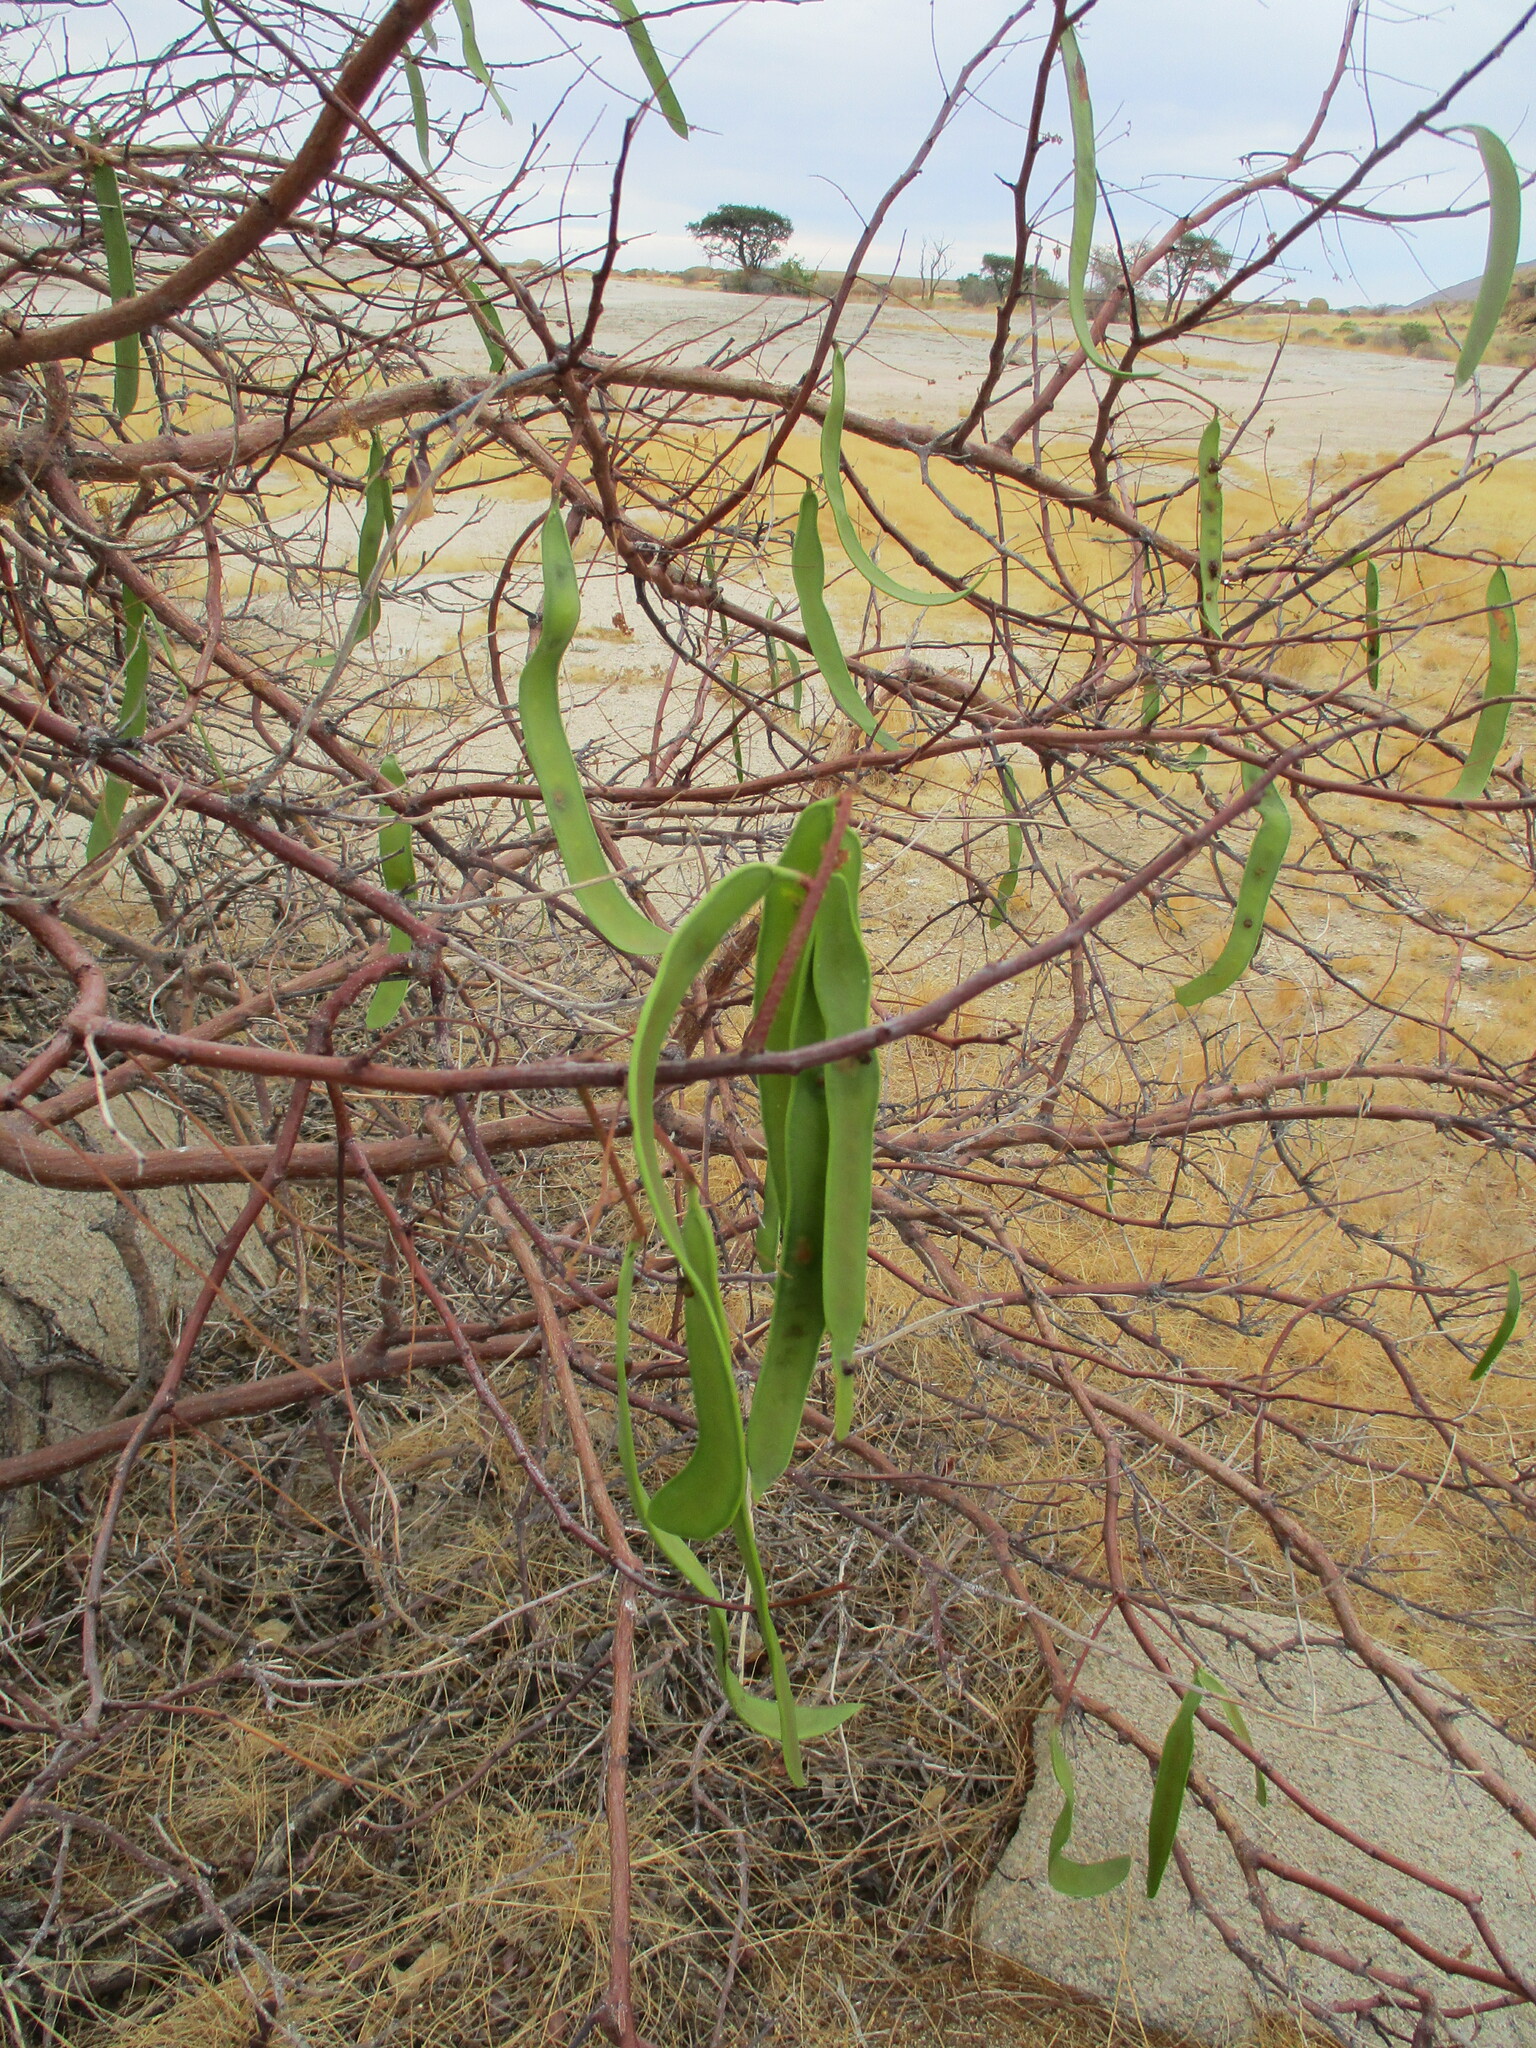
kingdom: Plantae
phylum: Tracheophyta
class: Magnoliopsida
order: Fabales
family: Fabaceae
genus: Elephantorrhiza
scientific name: Elephantorrhiza suffruticosa
